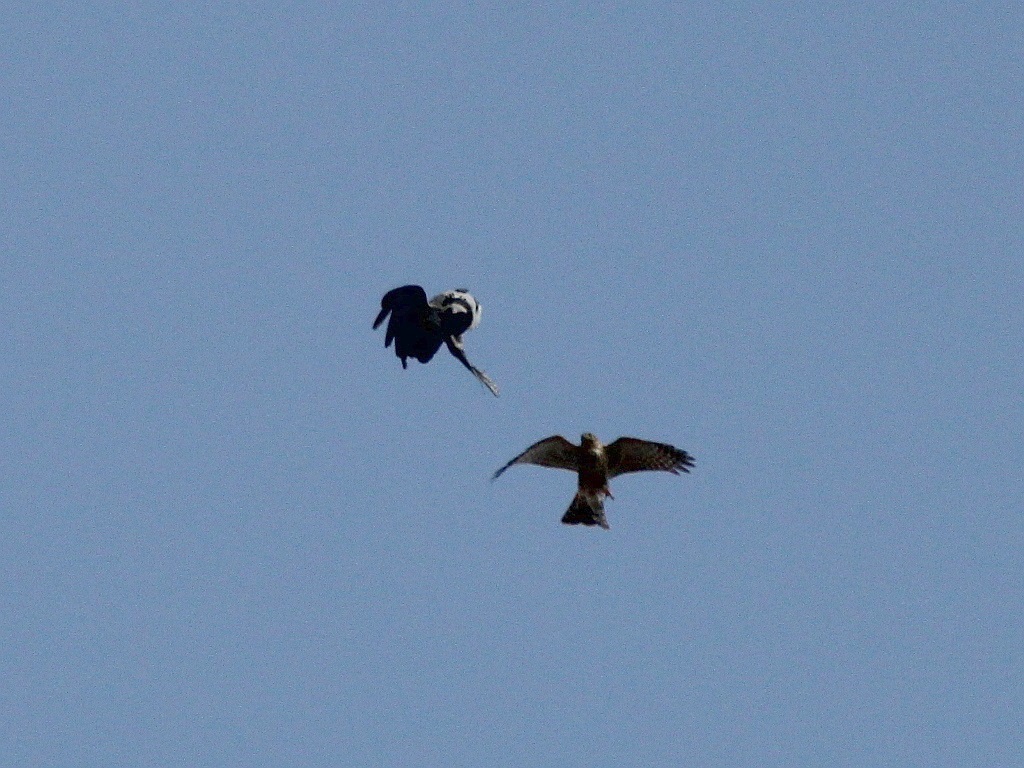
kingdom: Animalia
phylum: Chordata
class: Aves
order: Accipitriformes
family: Accipitridae
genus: Accipiter
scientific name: Accipiter nisus
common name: Eurasian sparrowhawk
